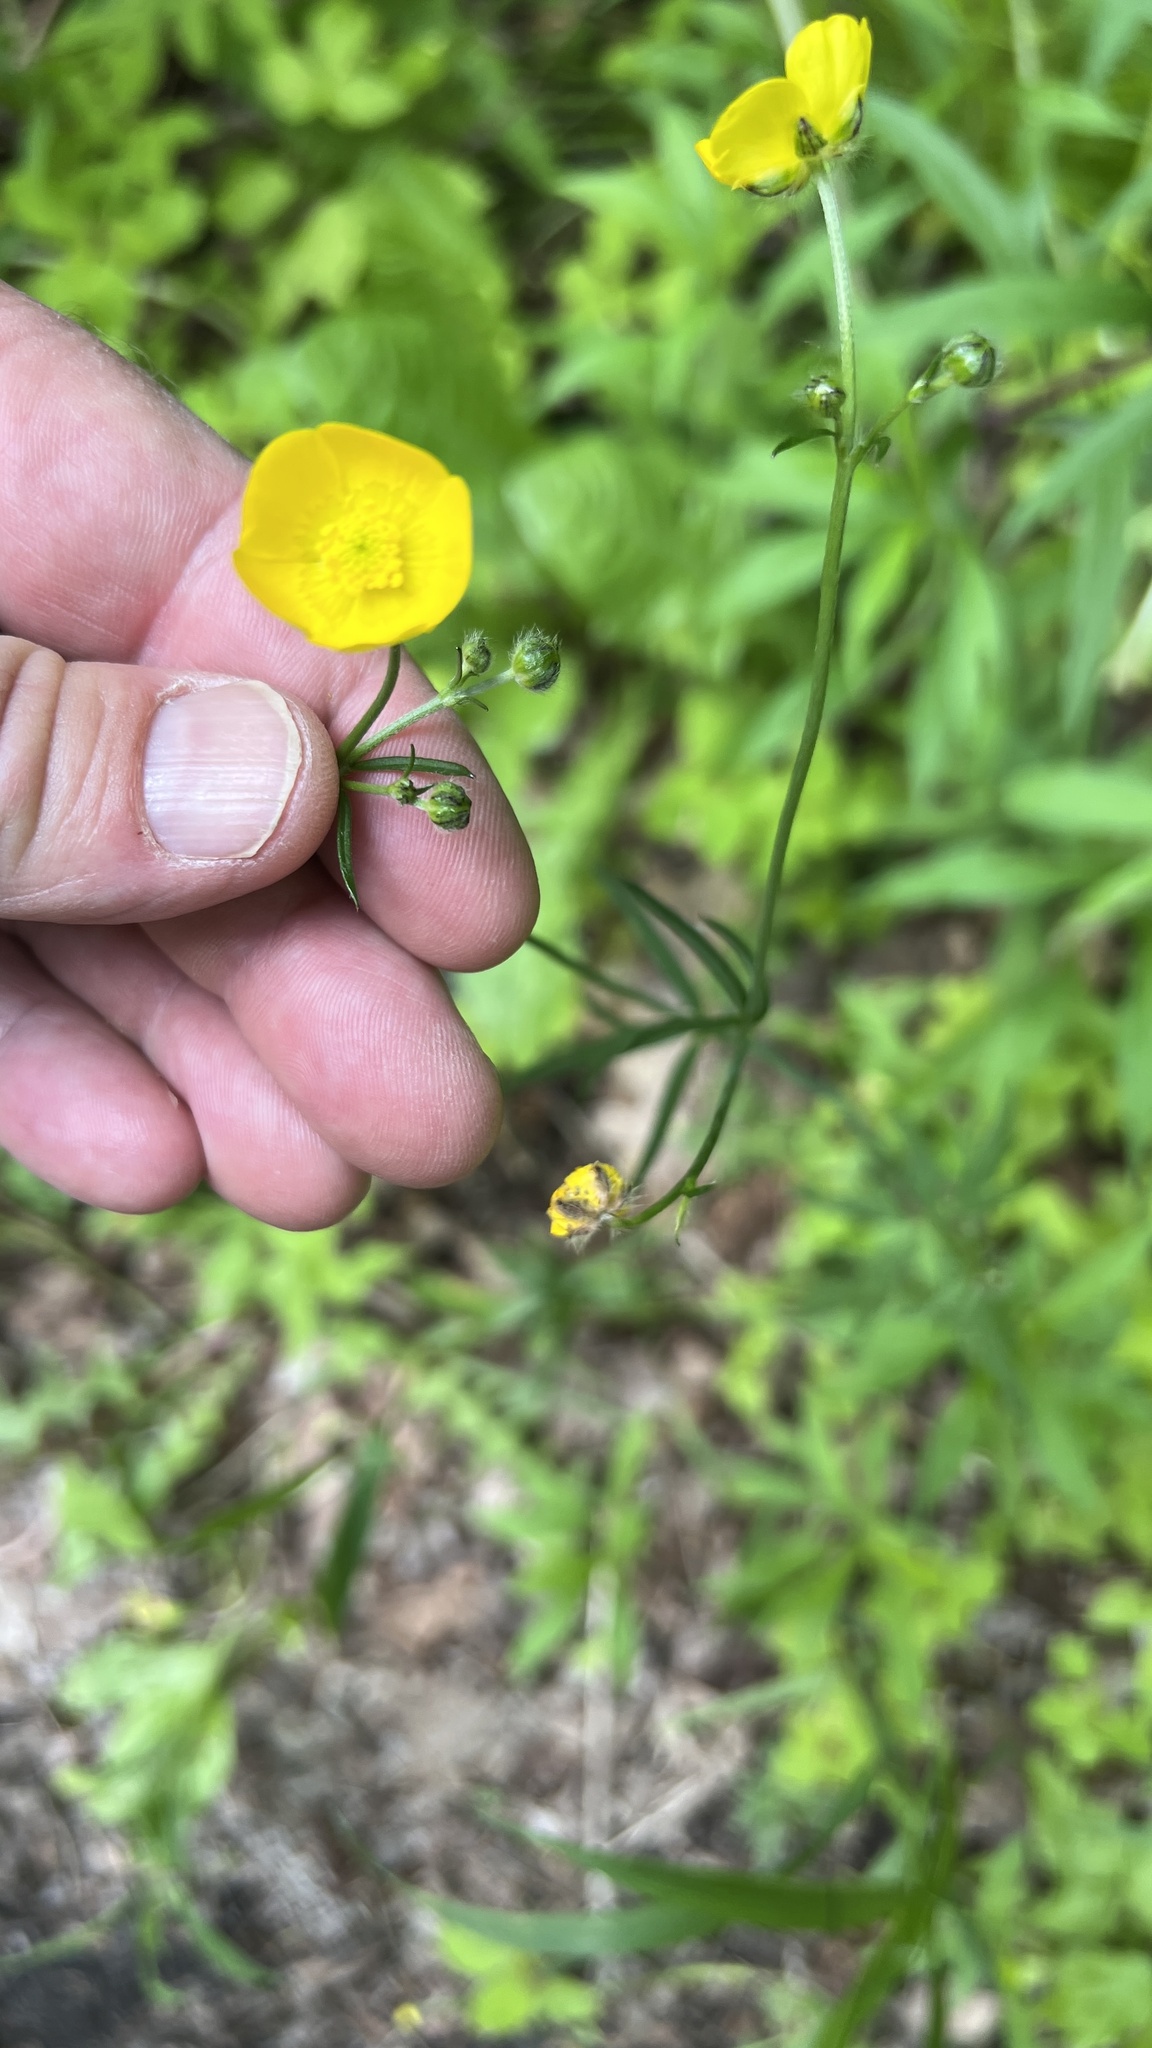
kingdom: Plantae
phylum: Tracheophyta
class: Magnoliopsida
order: Ranunculales
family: Ranunculaceae
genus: Ranunculus
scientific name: Ranunculus acris
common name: Meadow buttercup
